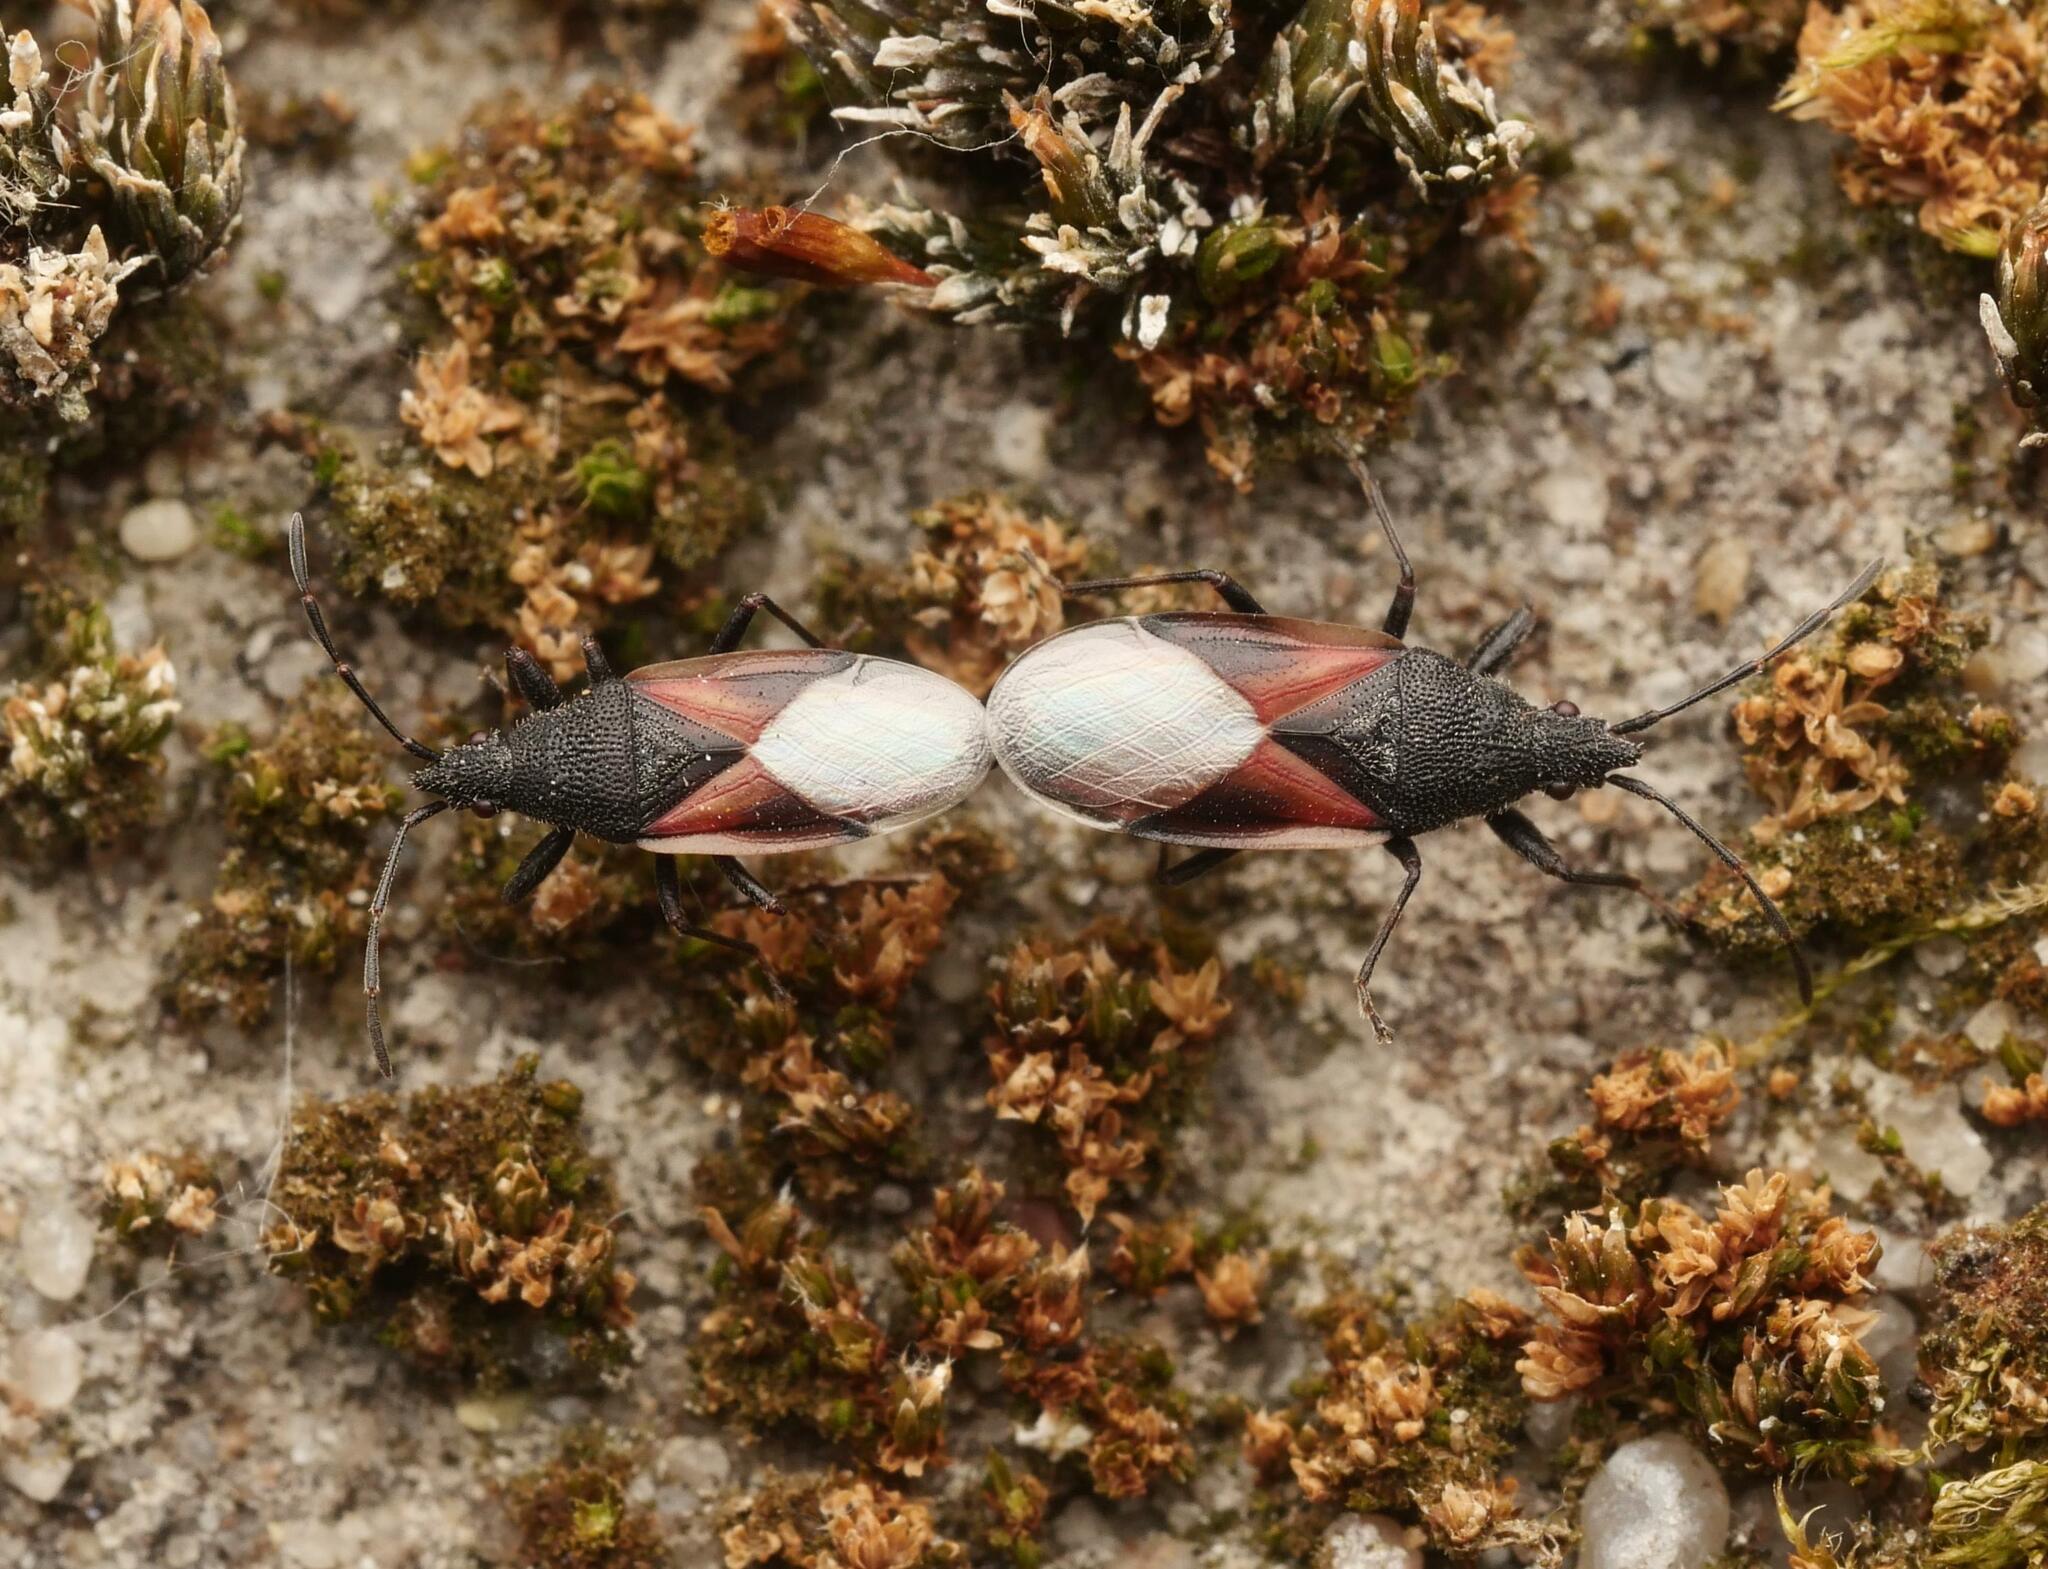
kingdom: Animalia
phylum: Arthropoda
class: Insecta
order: Hemiptera
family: Oxycarenidae
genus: Oxycarenus
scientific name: Oxycarenus lavaterae
